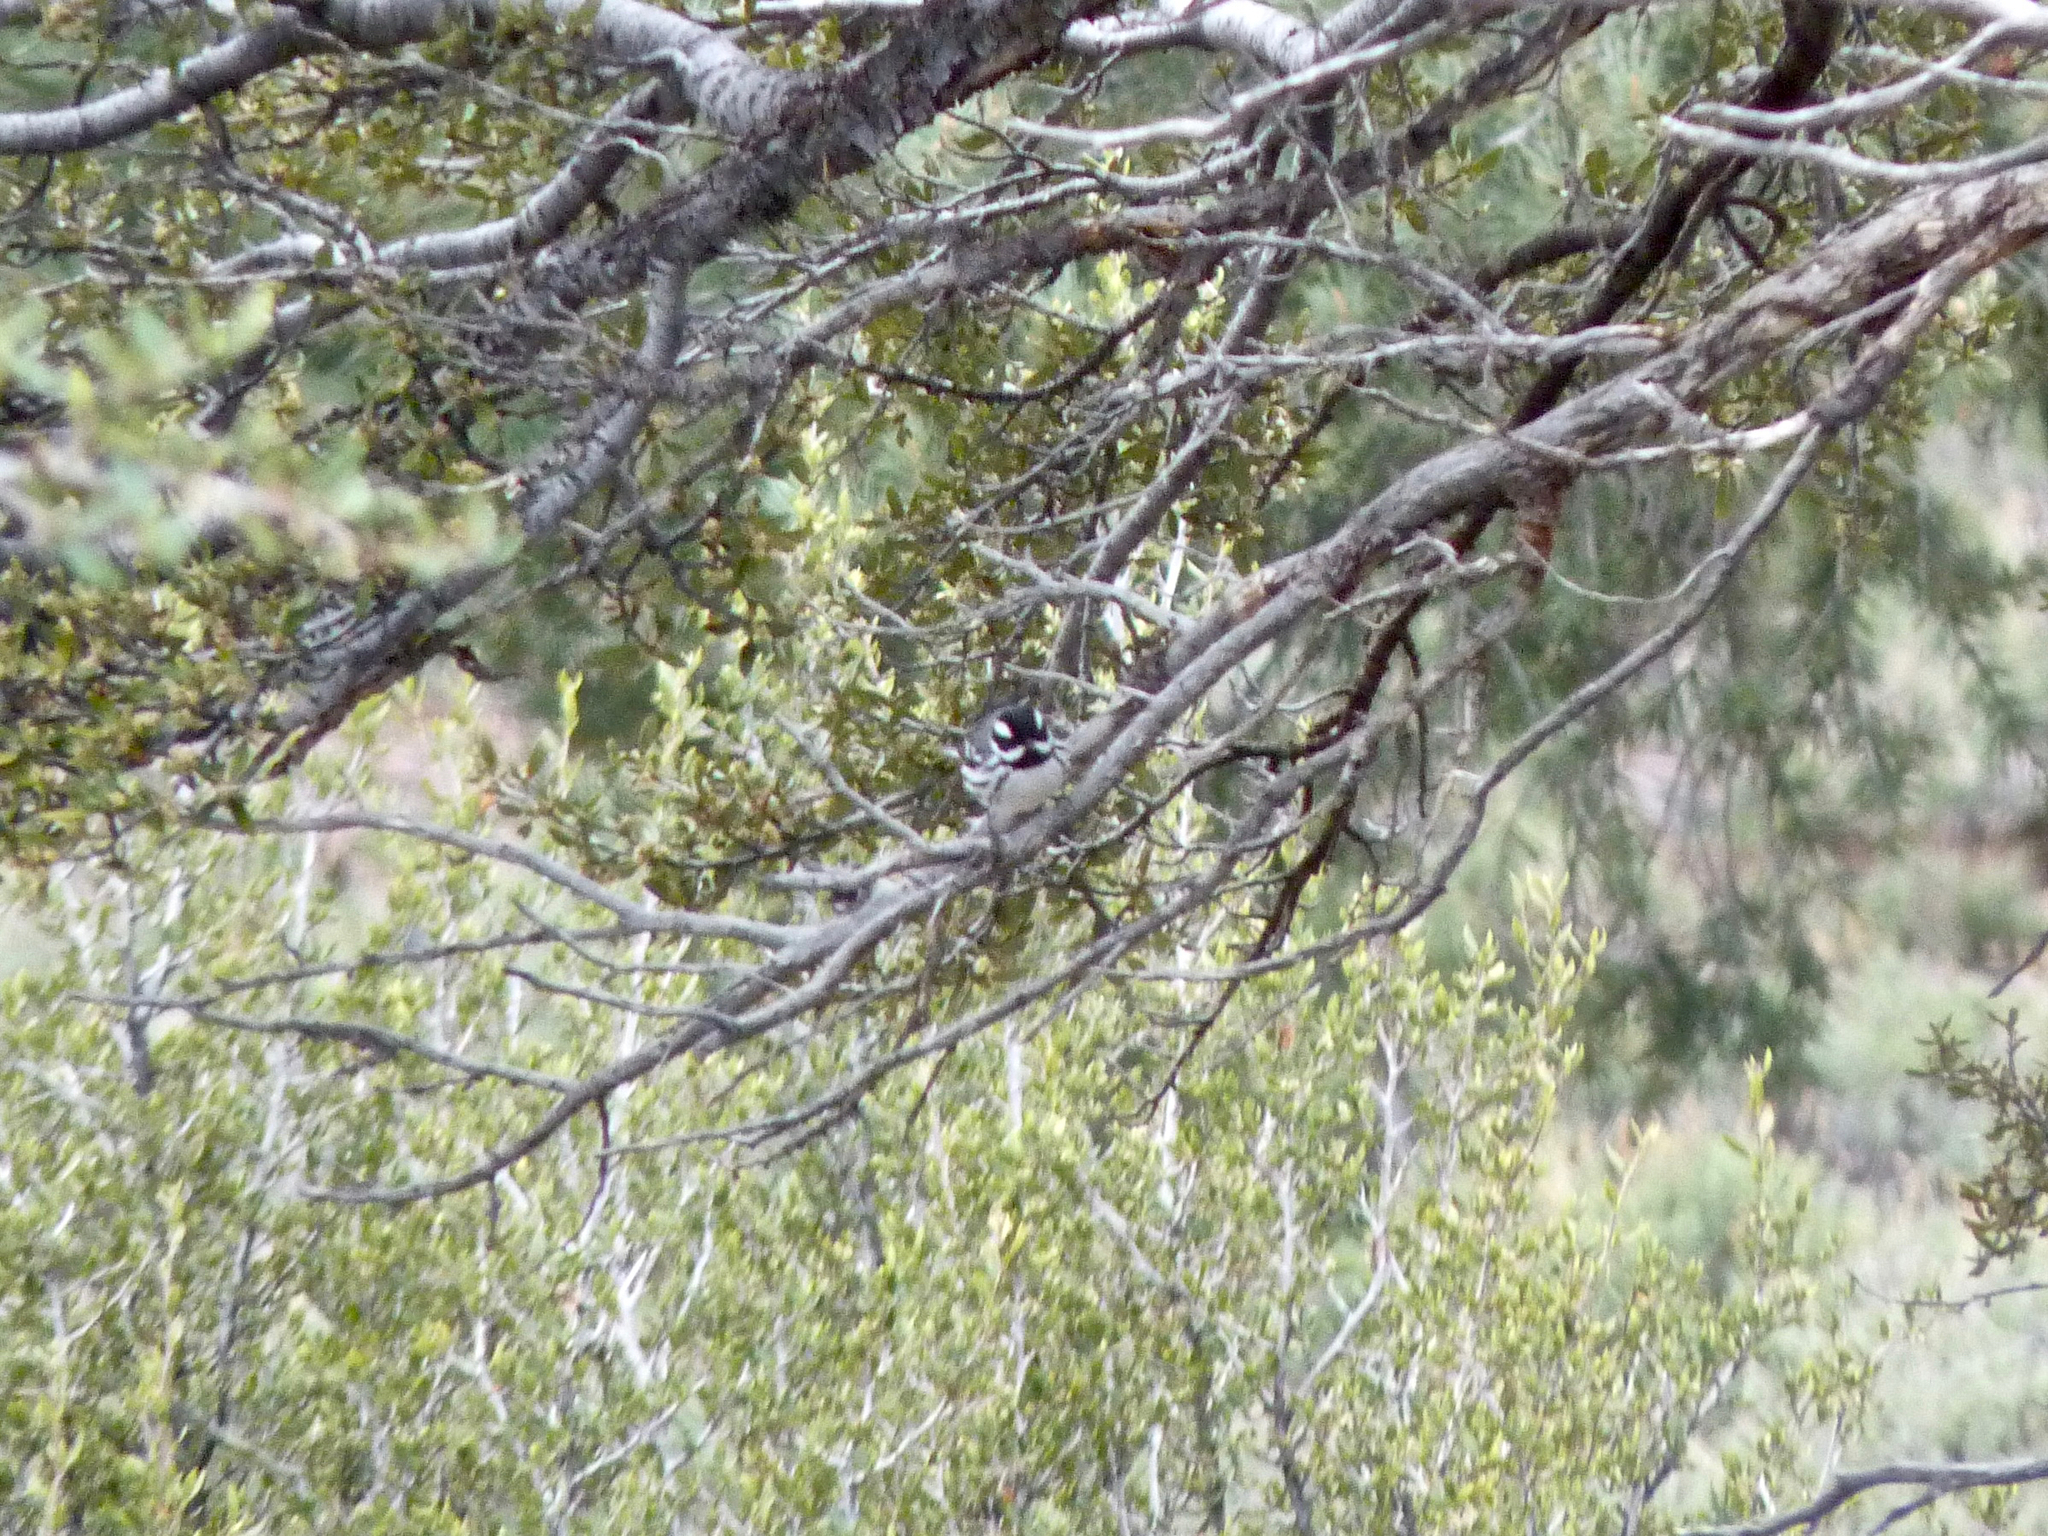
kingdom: Animalia
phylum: Chordata
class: Aves
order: Passeriformes
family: Parulidae
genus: Setophaga
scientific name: Setophaga nigrescens
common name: Black-throated gray warbler
